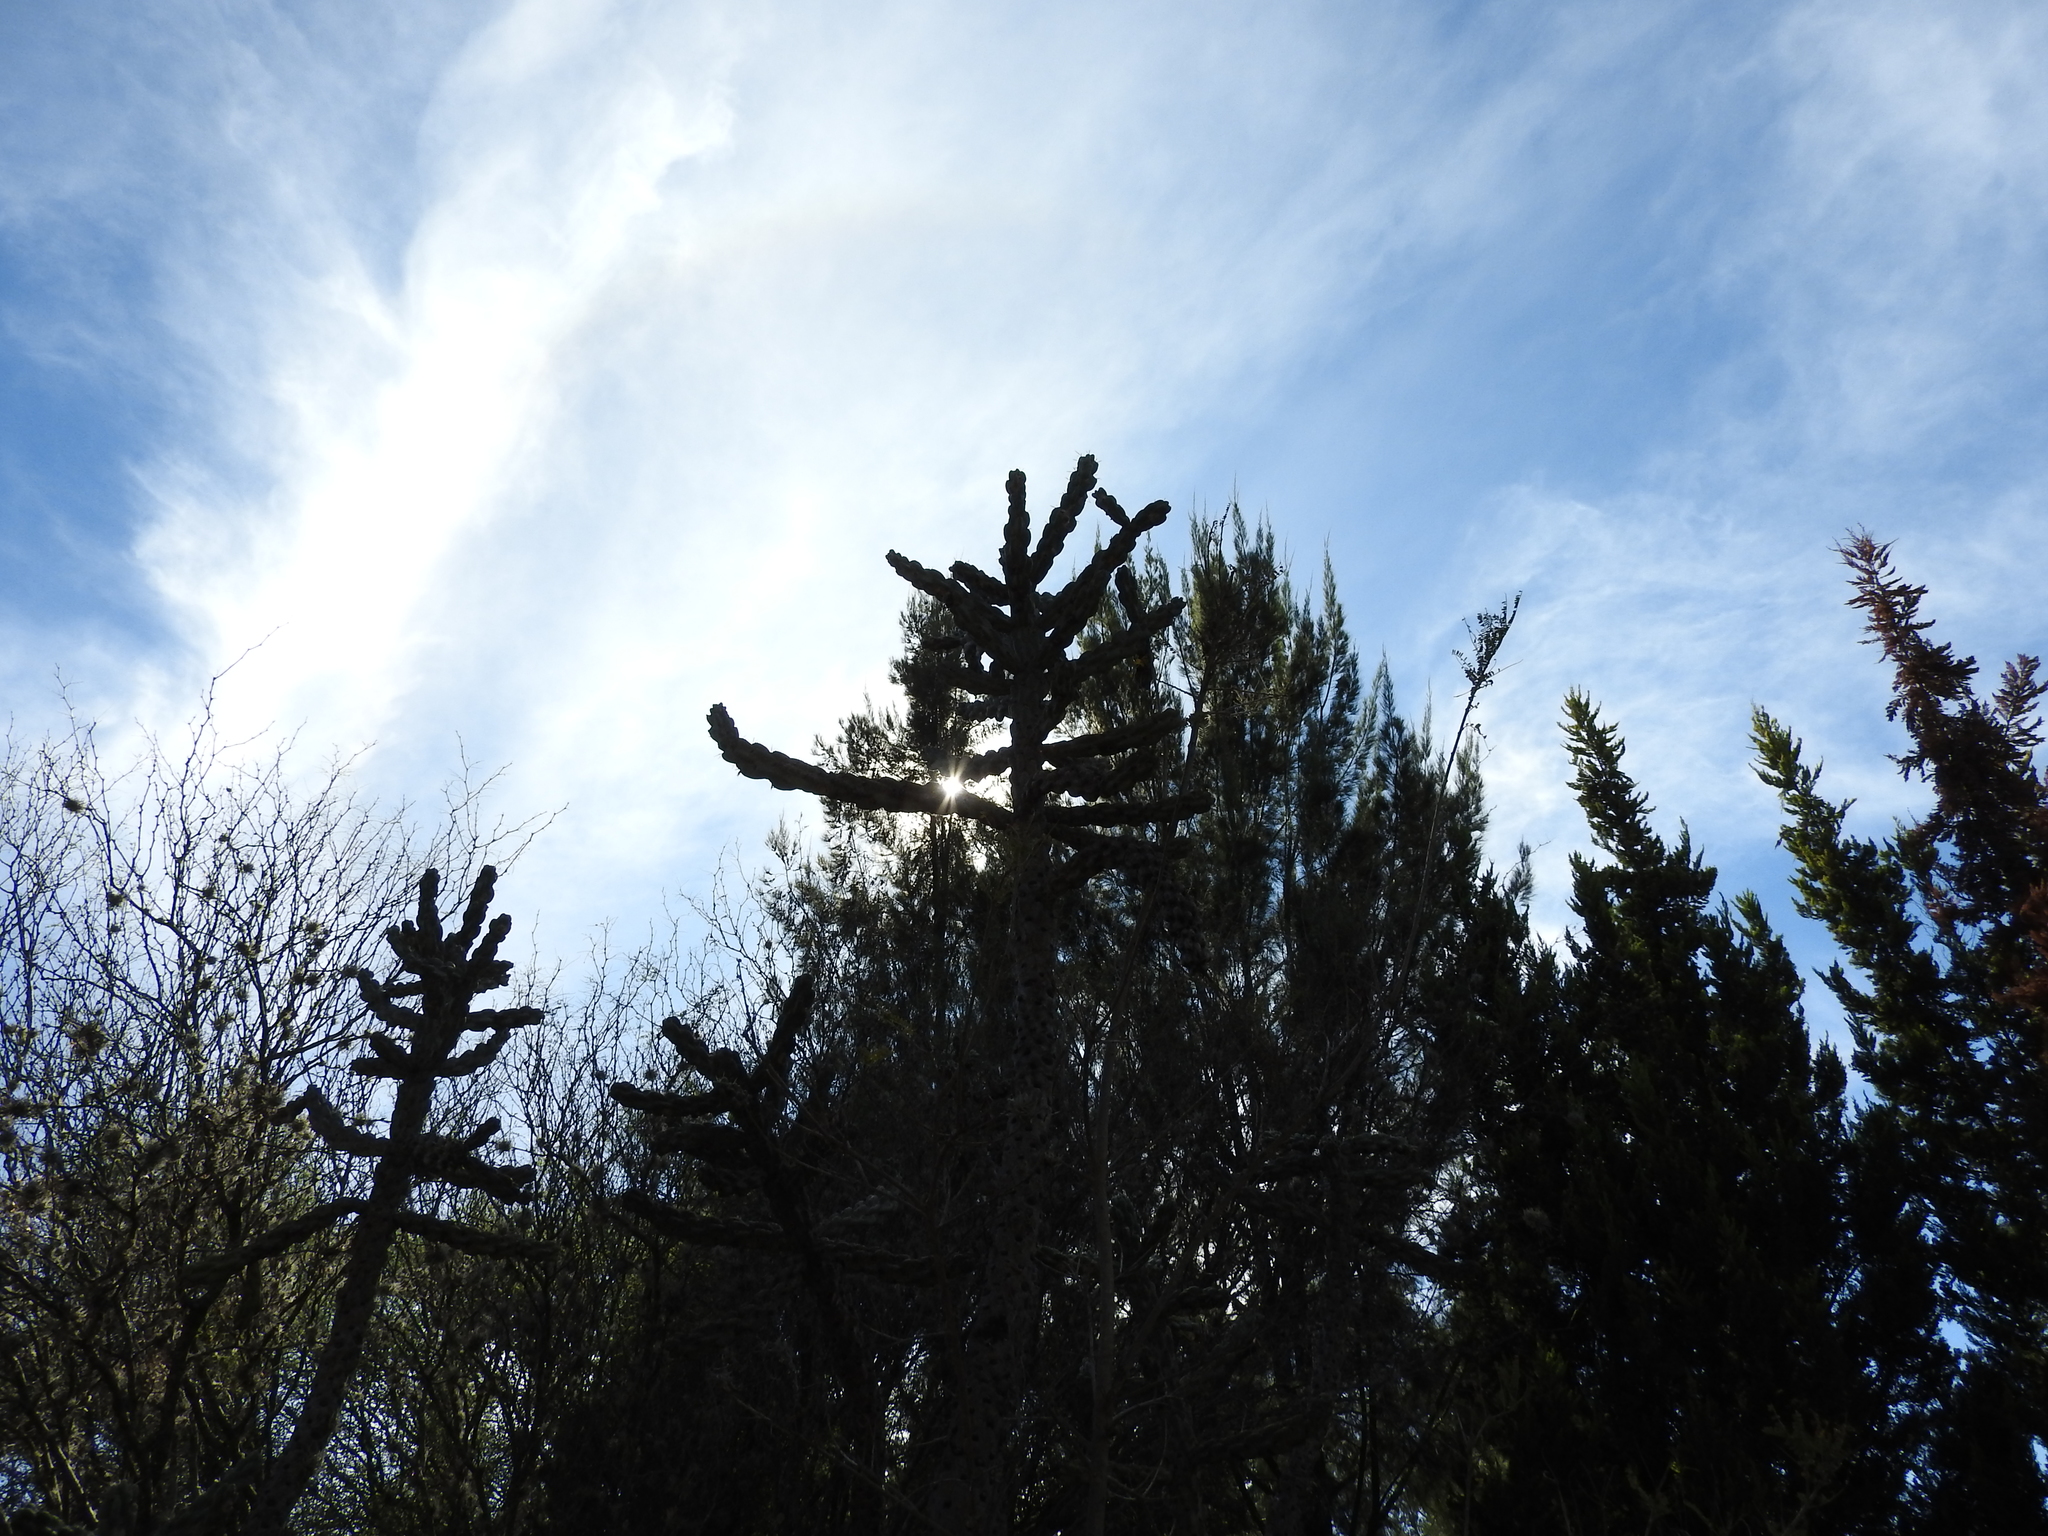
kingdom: Plantae
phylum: Tracheophyta
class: Magnoliopsida
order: Caryophyllales
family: Cactaceae
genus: Cylindropuntia
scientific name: Cylindropuntia imbricata
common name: Candelabrum cactus
